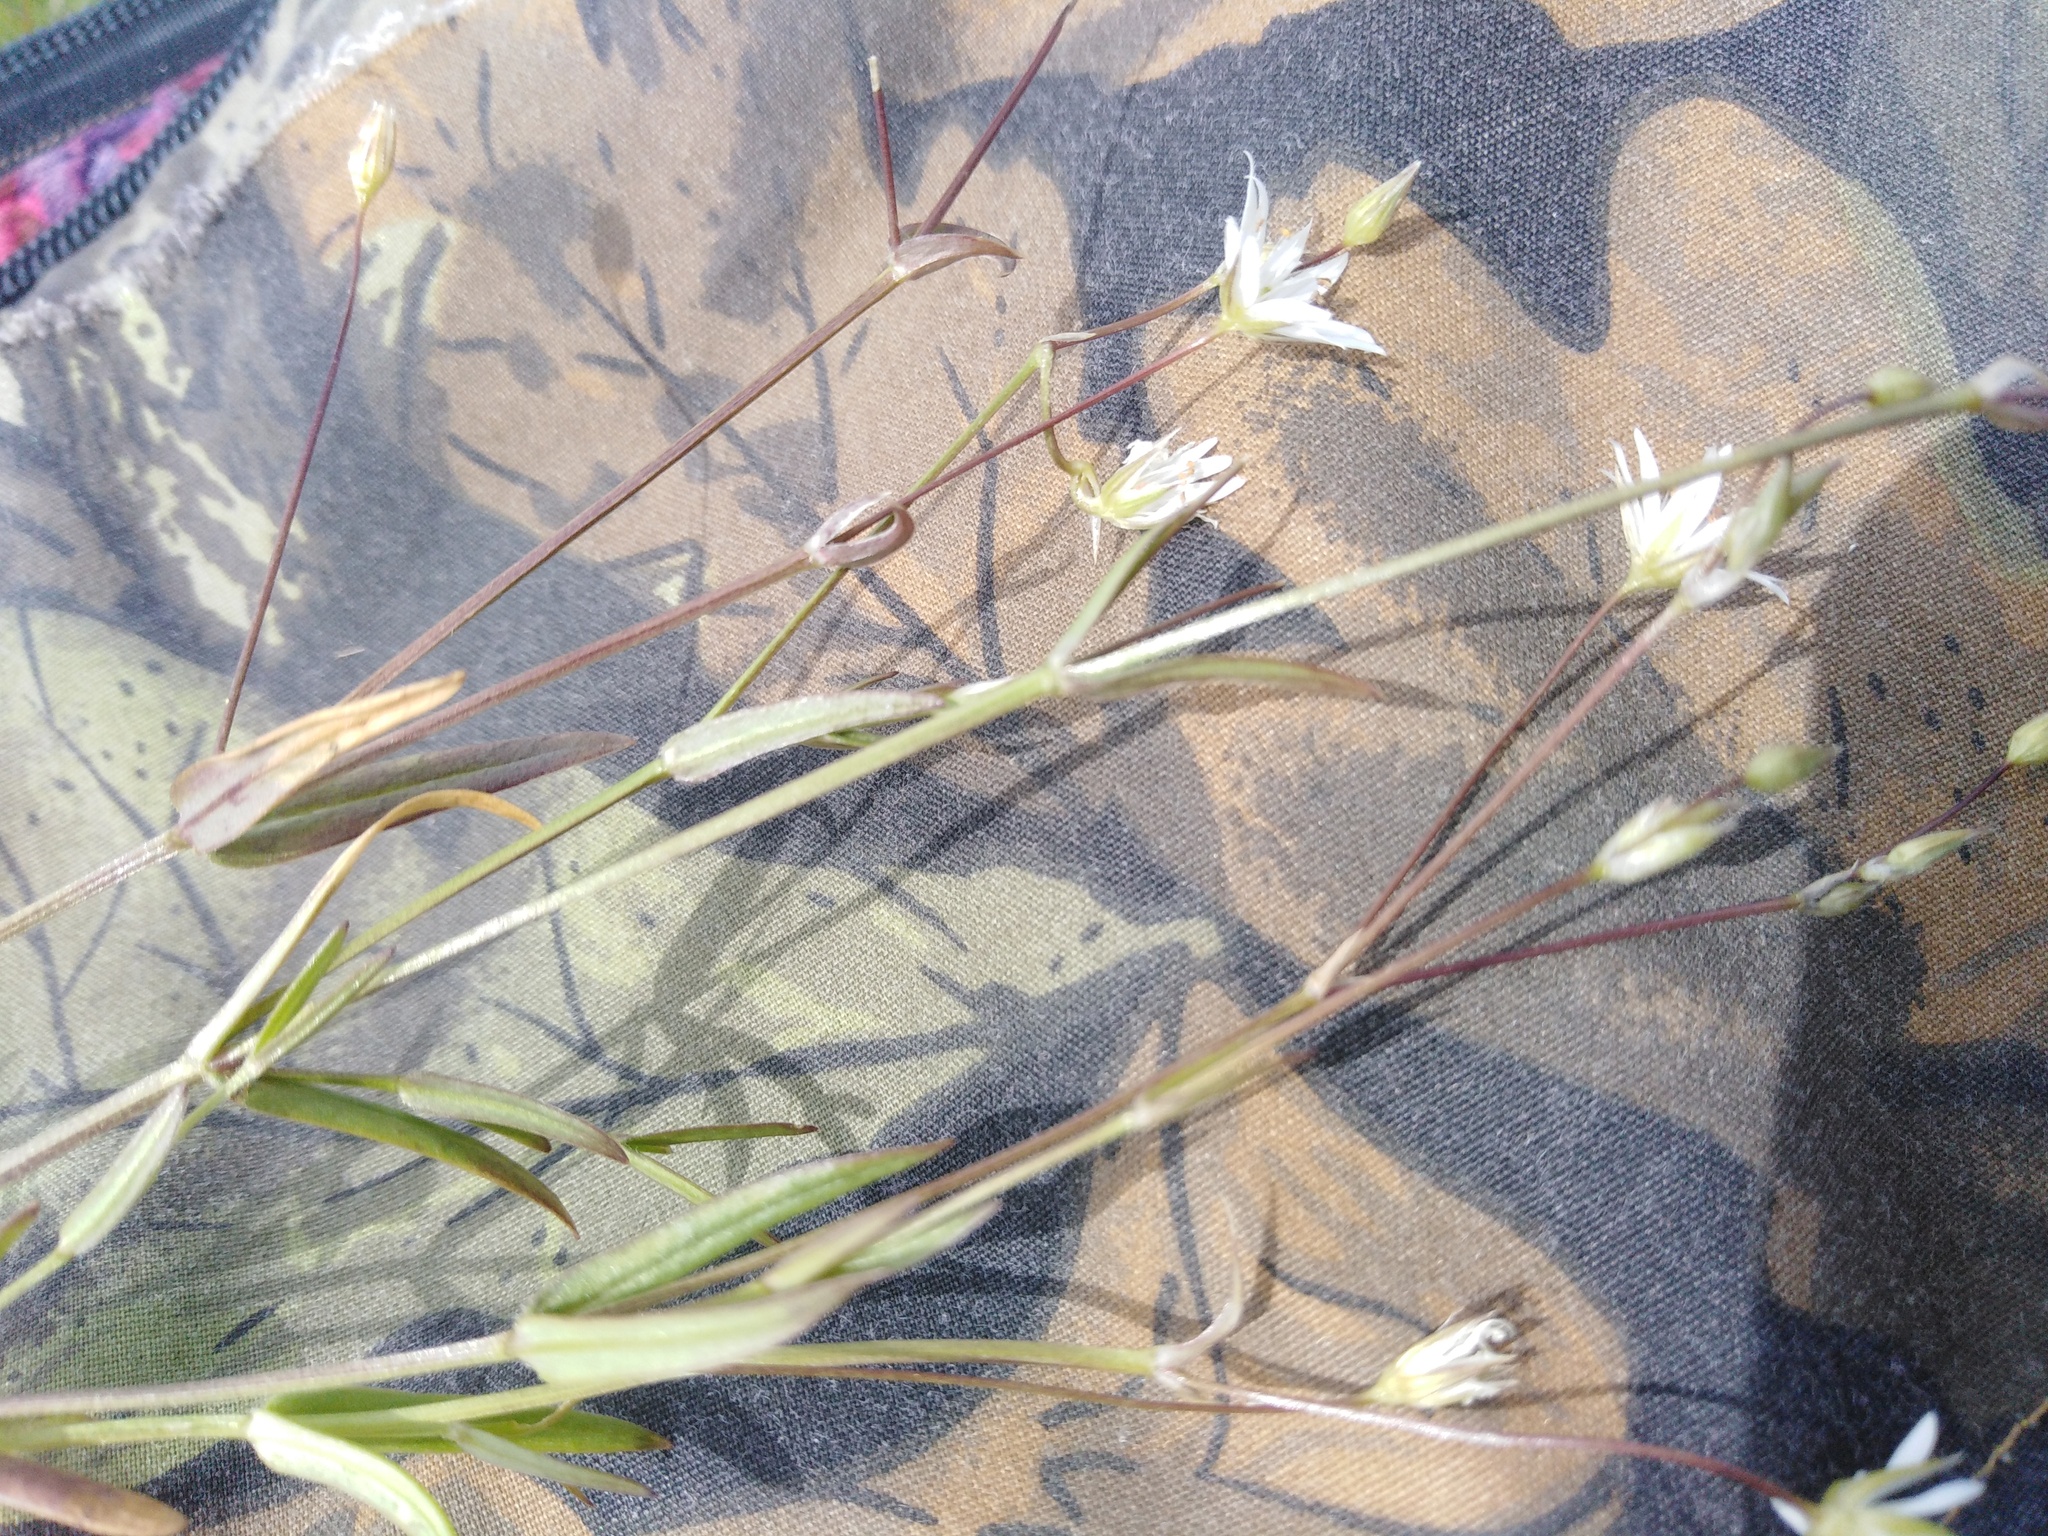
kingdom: Plantae
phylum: Tracheophyta
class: Magnoliopsida
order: Caryophyllales
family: Caryophyllaceae
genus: Stellaria
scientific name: Stellaria graminea
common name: Grass-like starwort
